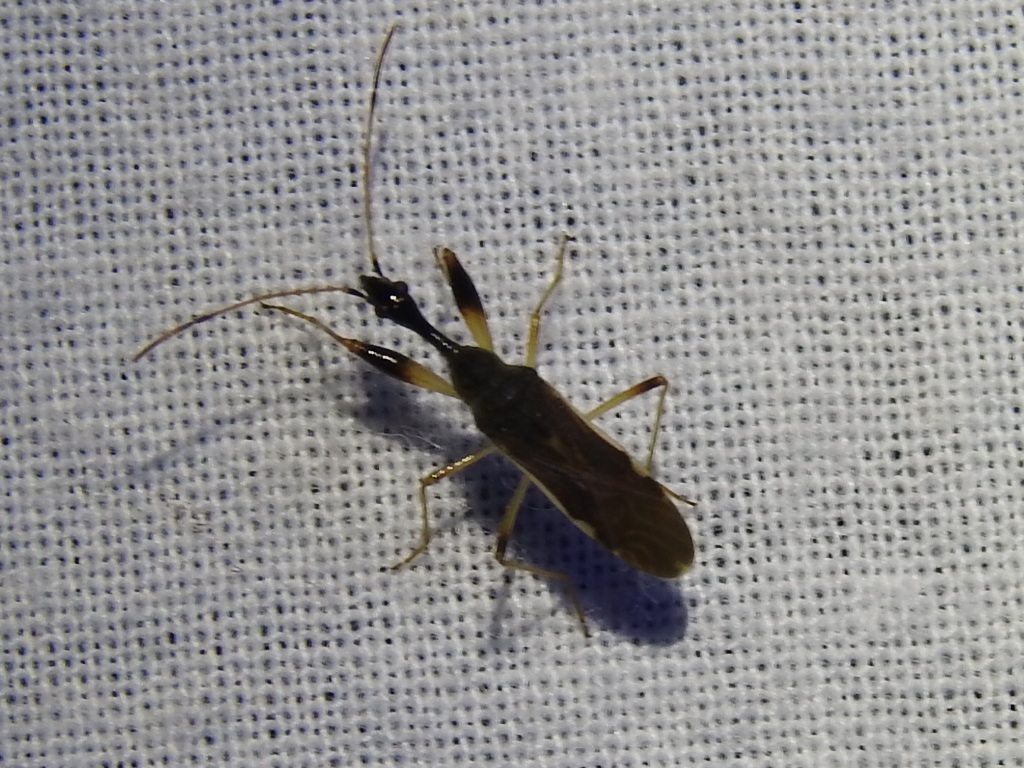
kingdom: Animalia
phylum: Arthropoda
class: Insecta
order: Hemiptera
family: Rhyparochromidae
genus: Myodocha
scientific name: Myodocha serripes
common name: Long-necked seed bug
